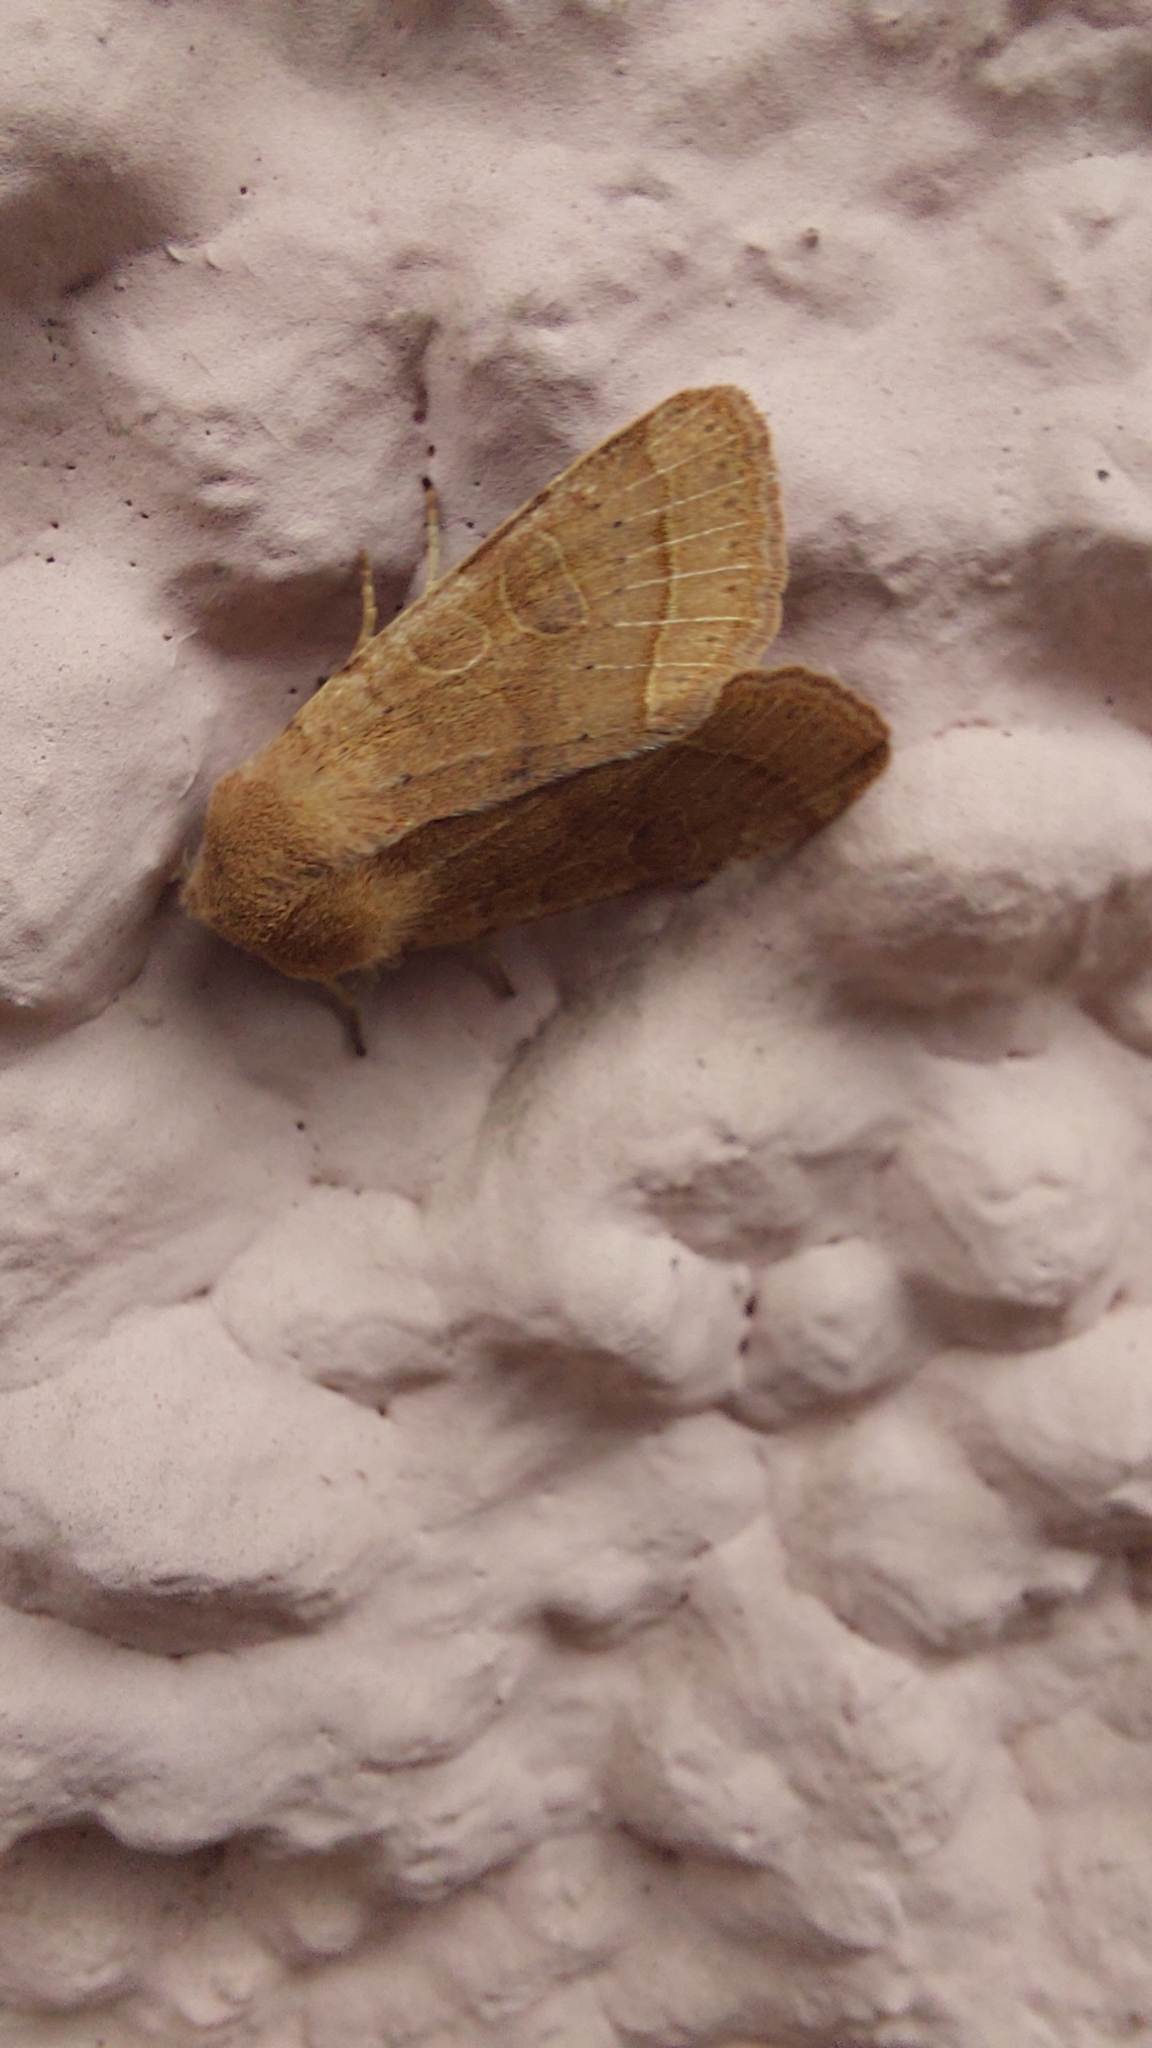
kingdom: Animalia
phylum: Arthropoda
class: Insecta
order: Lepidoptera
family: Noctuidae
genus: Orthosia
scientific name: Orthosia cerasi
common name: Common quaker
